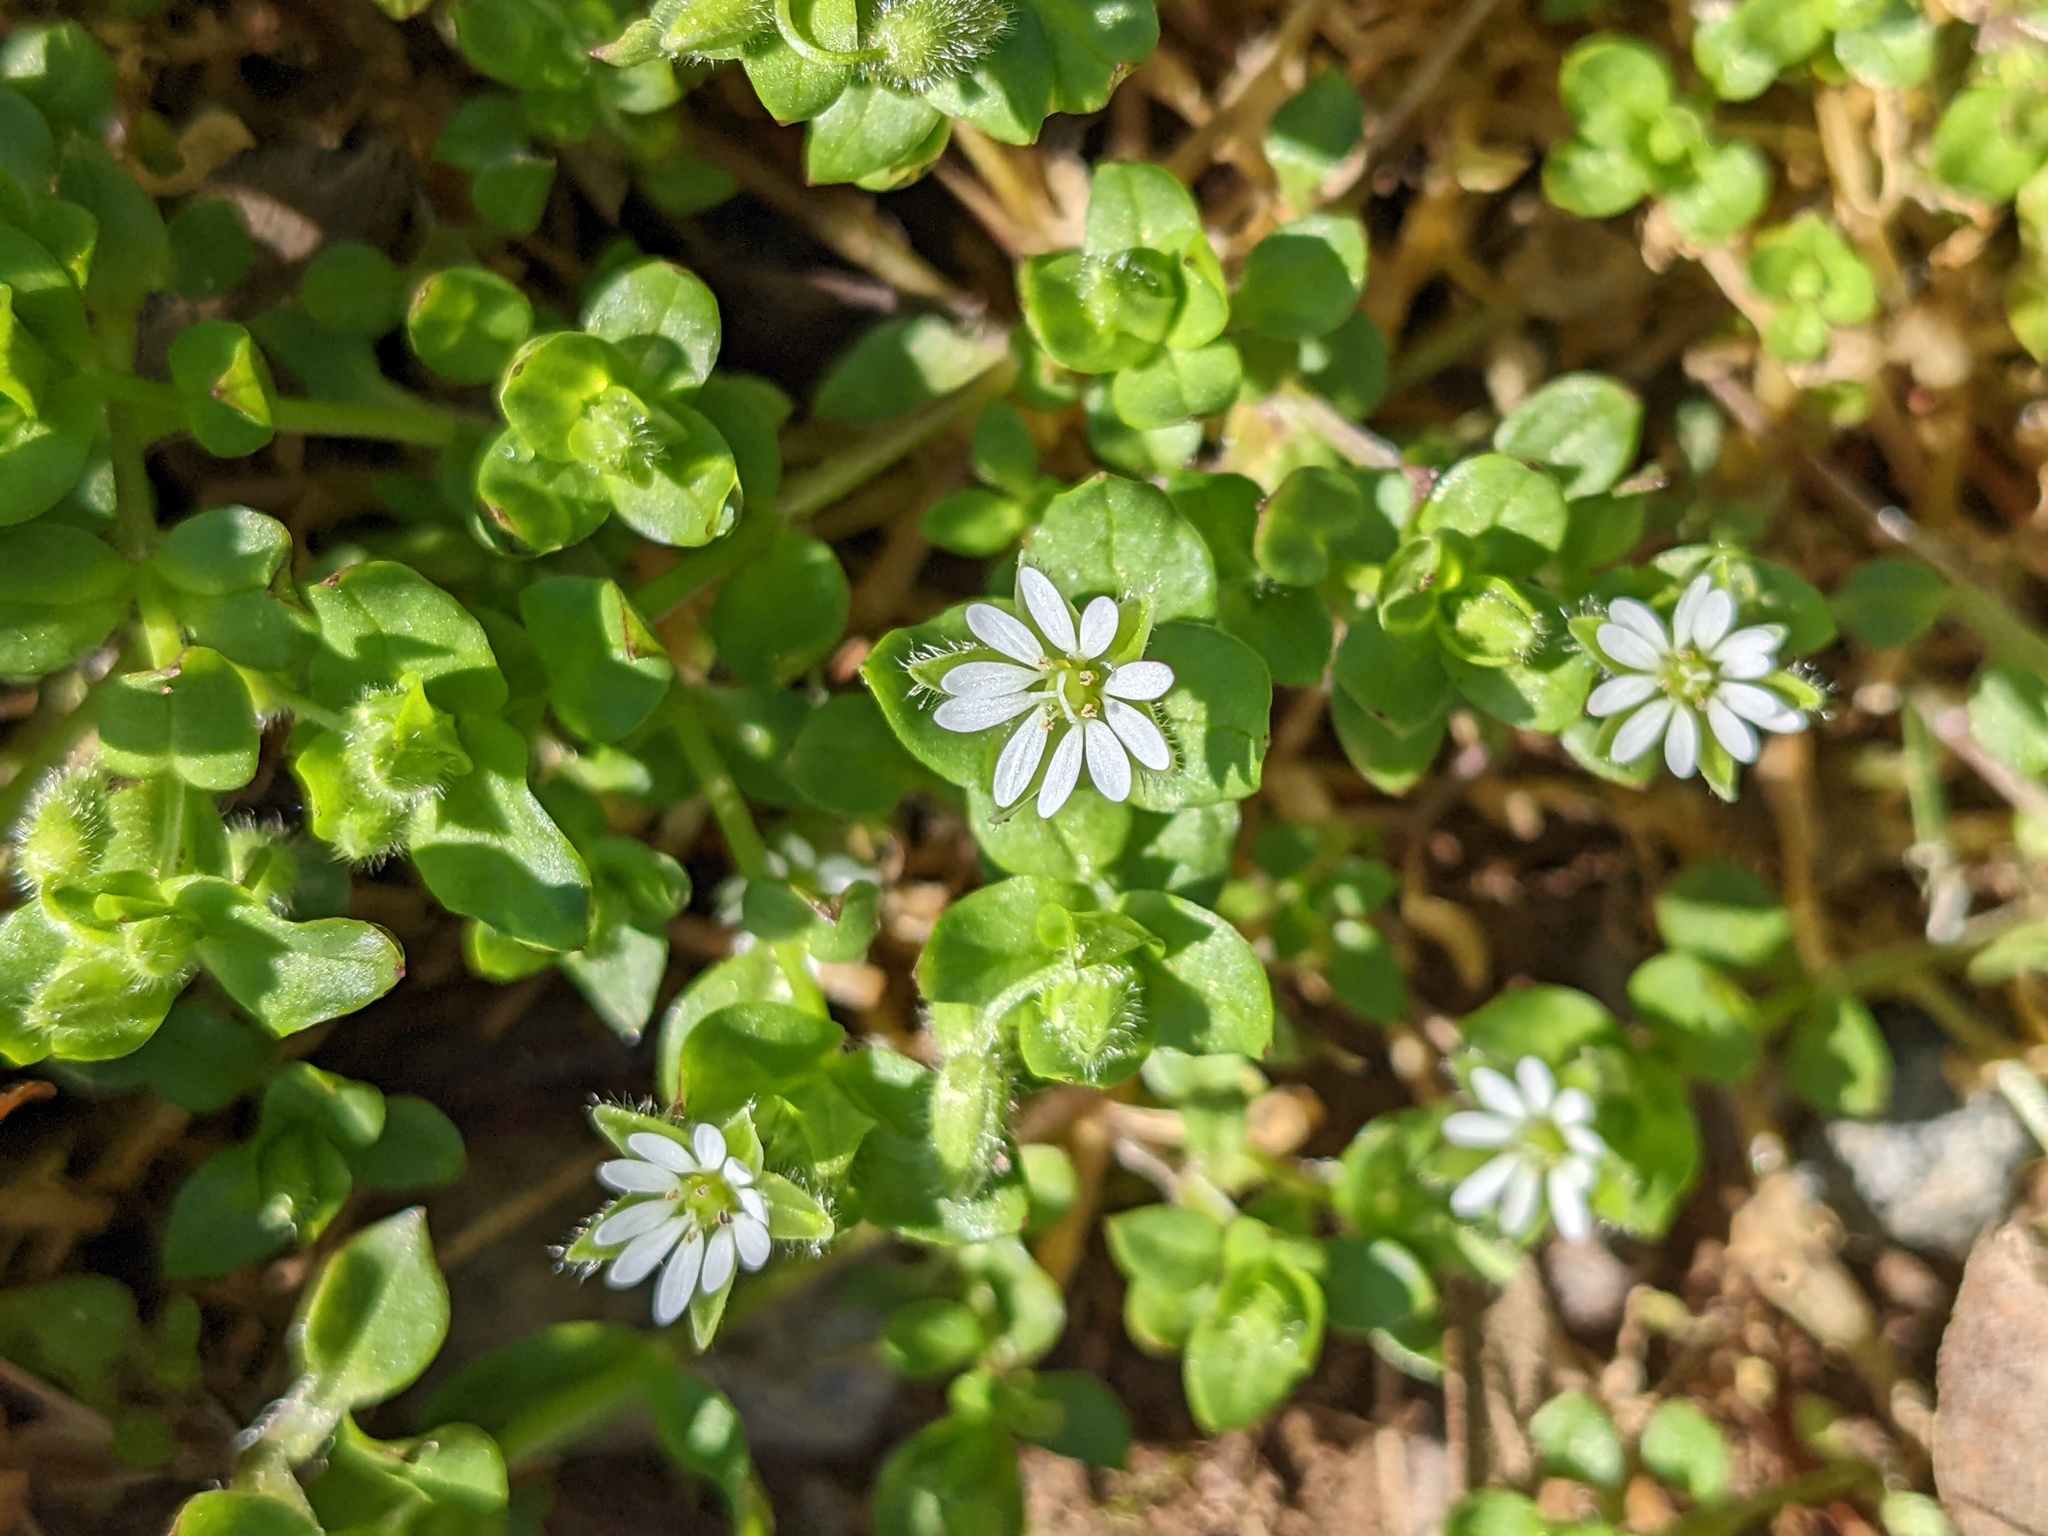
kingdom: Plantae
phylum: Tracheophyta
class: Magnoliopsida
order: Caryophyllales
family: Caryophyllaceae
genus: Stellaria
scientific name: Stellaria media
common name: Common chickweed
